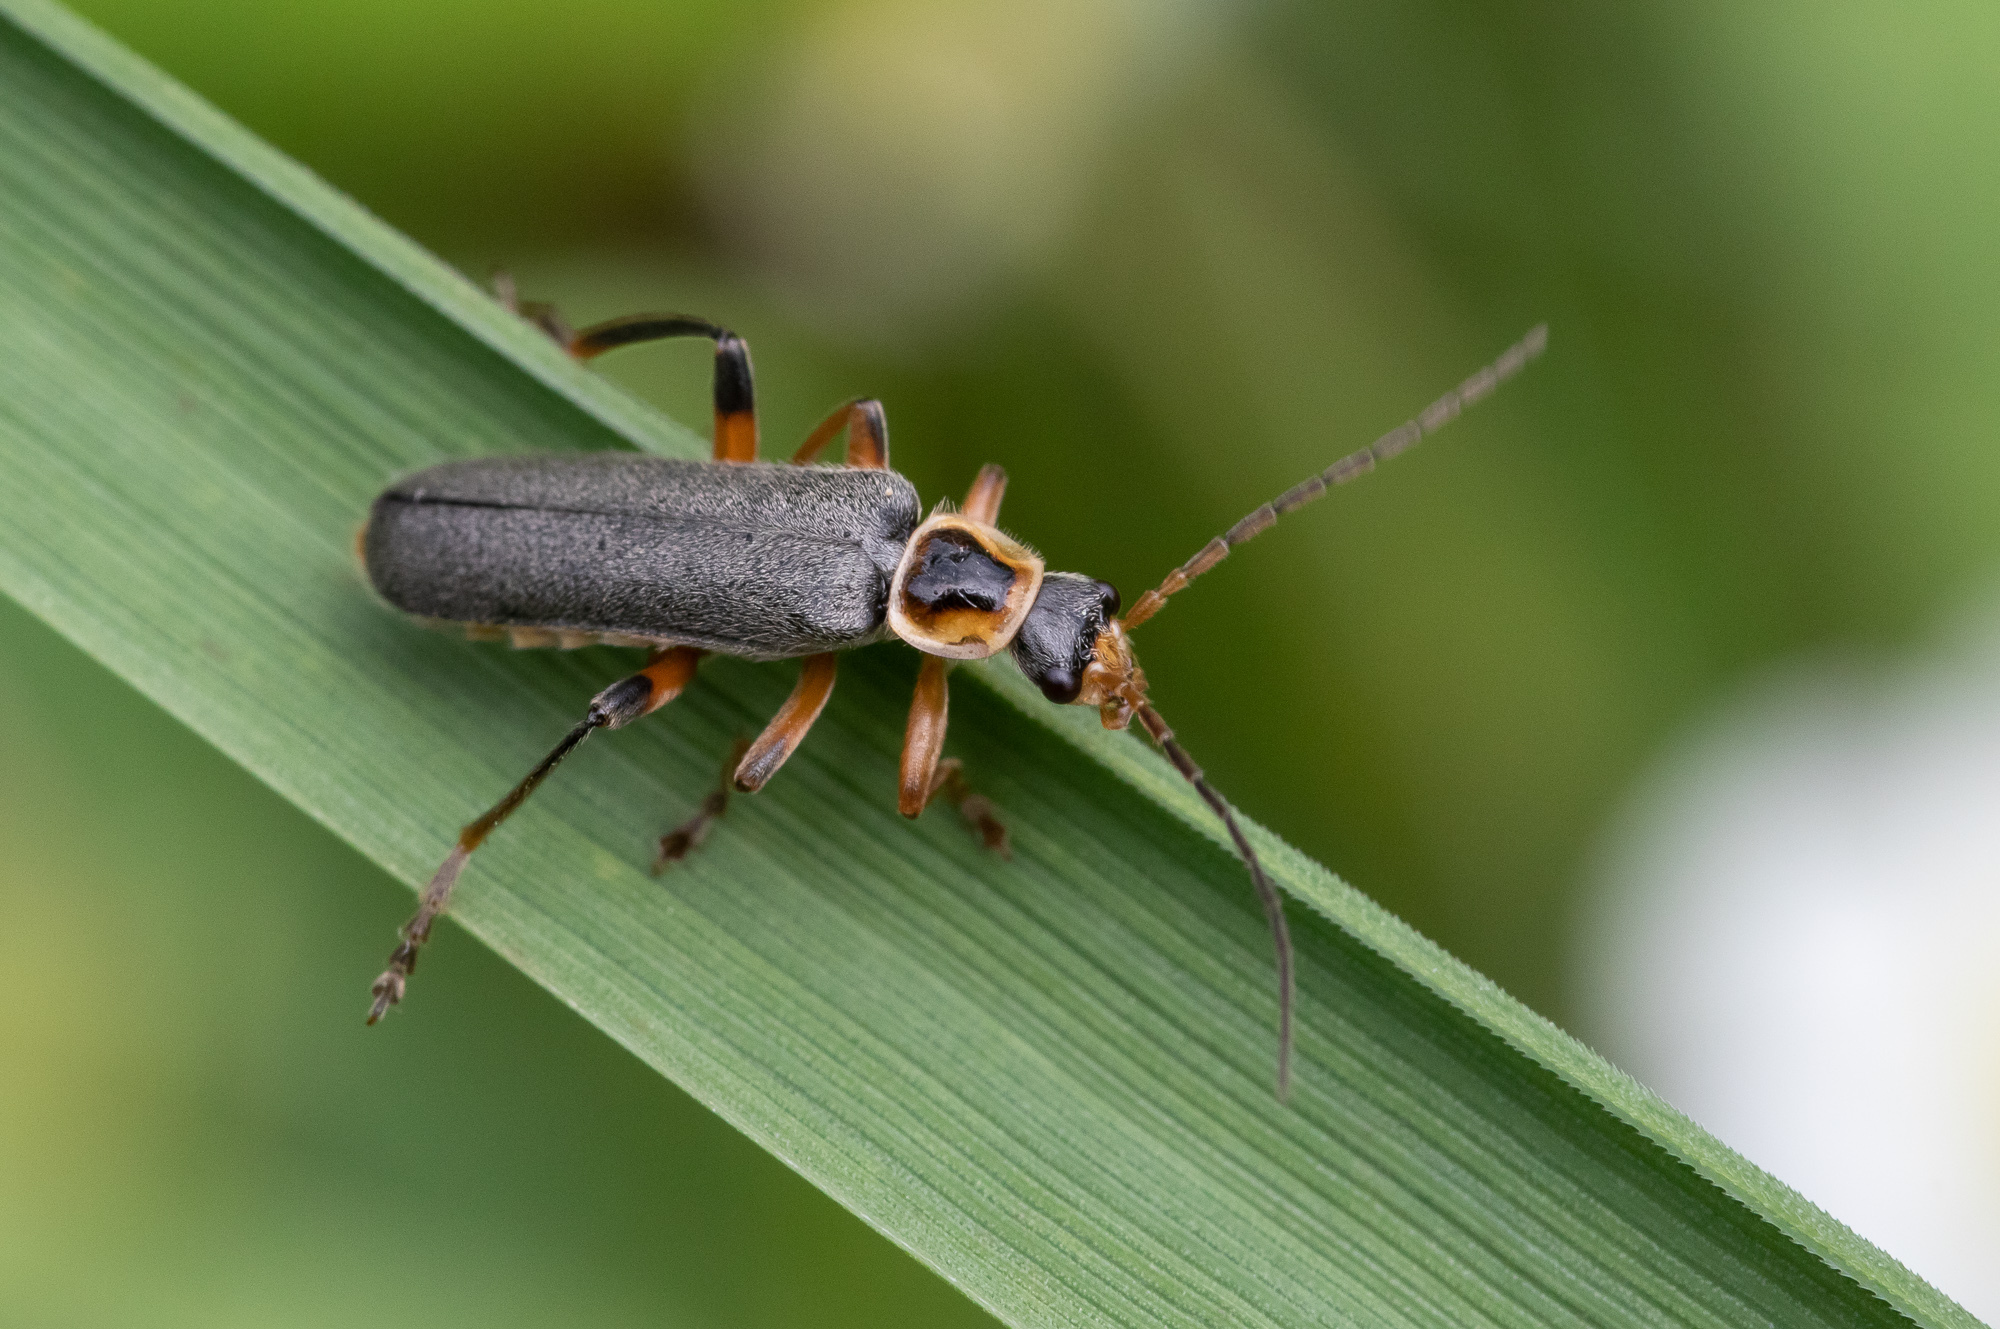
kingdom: Animalia
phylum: Arthropoda
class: Insecta
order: Coleoptera
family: Cantharidae
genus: Cantharis
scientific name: Cantharis nigricans
